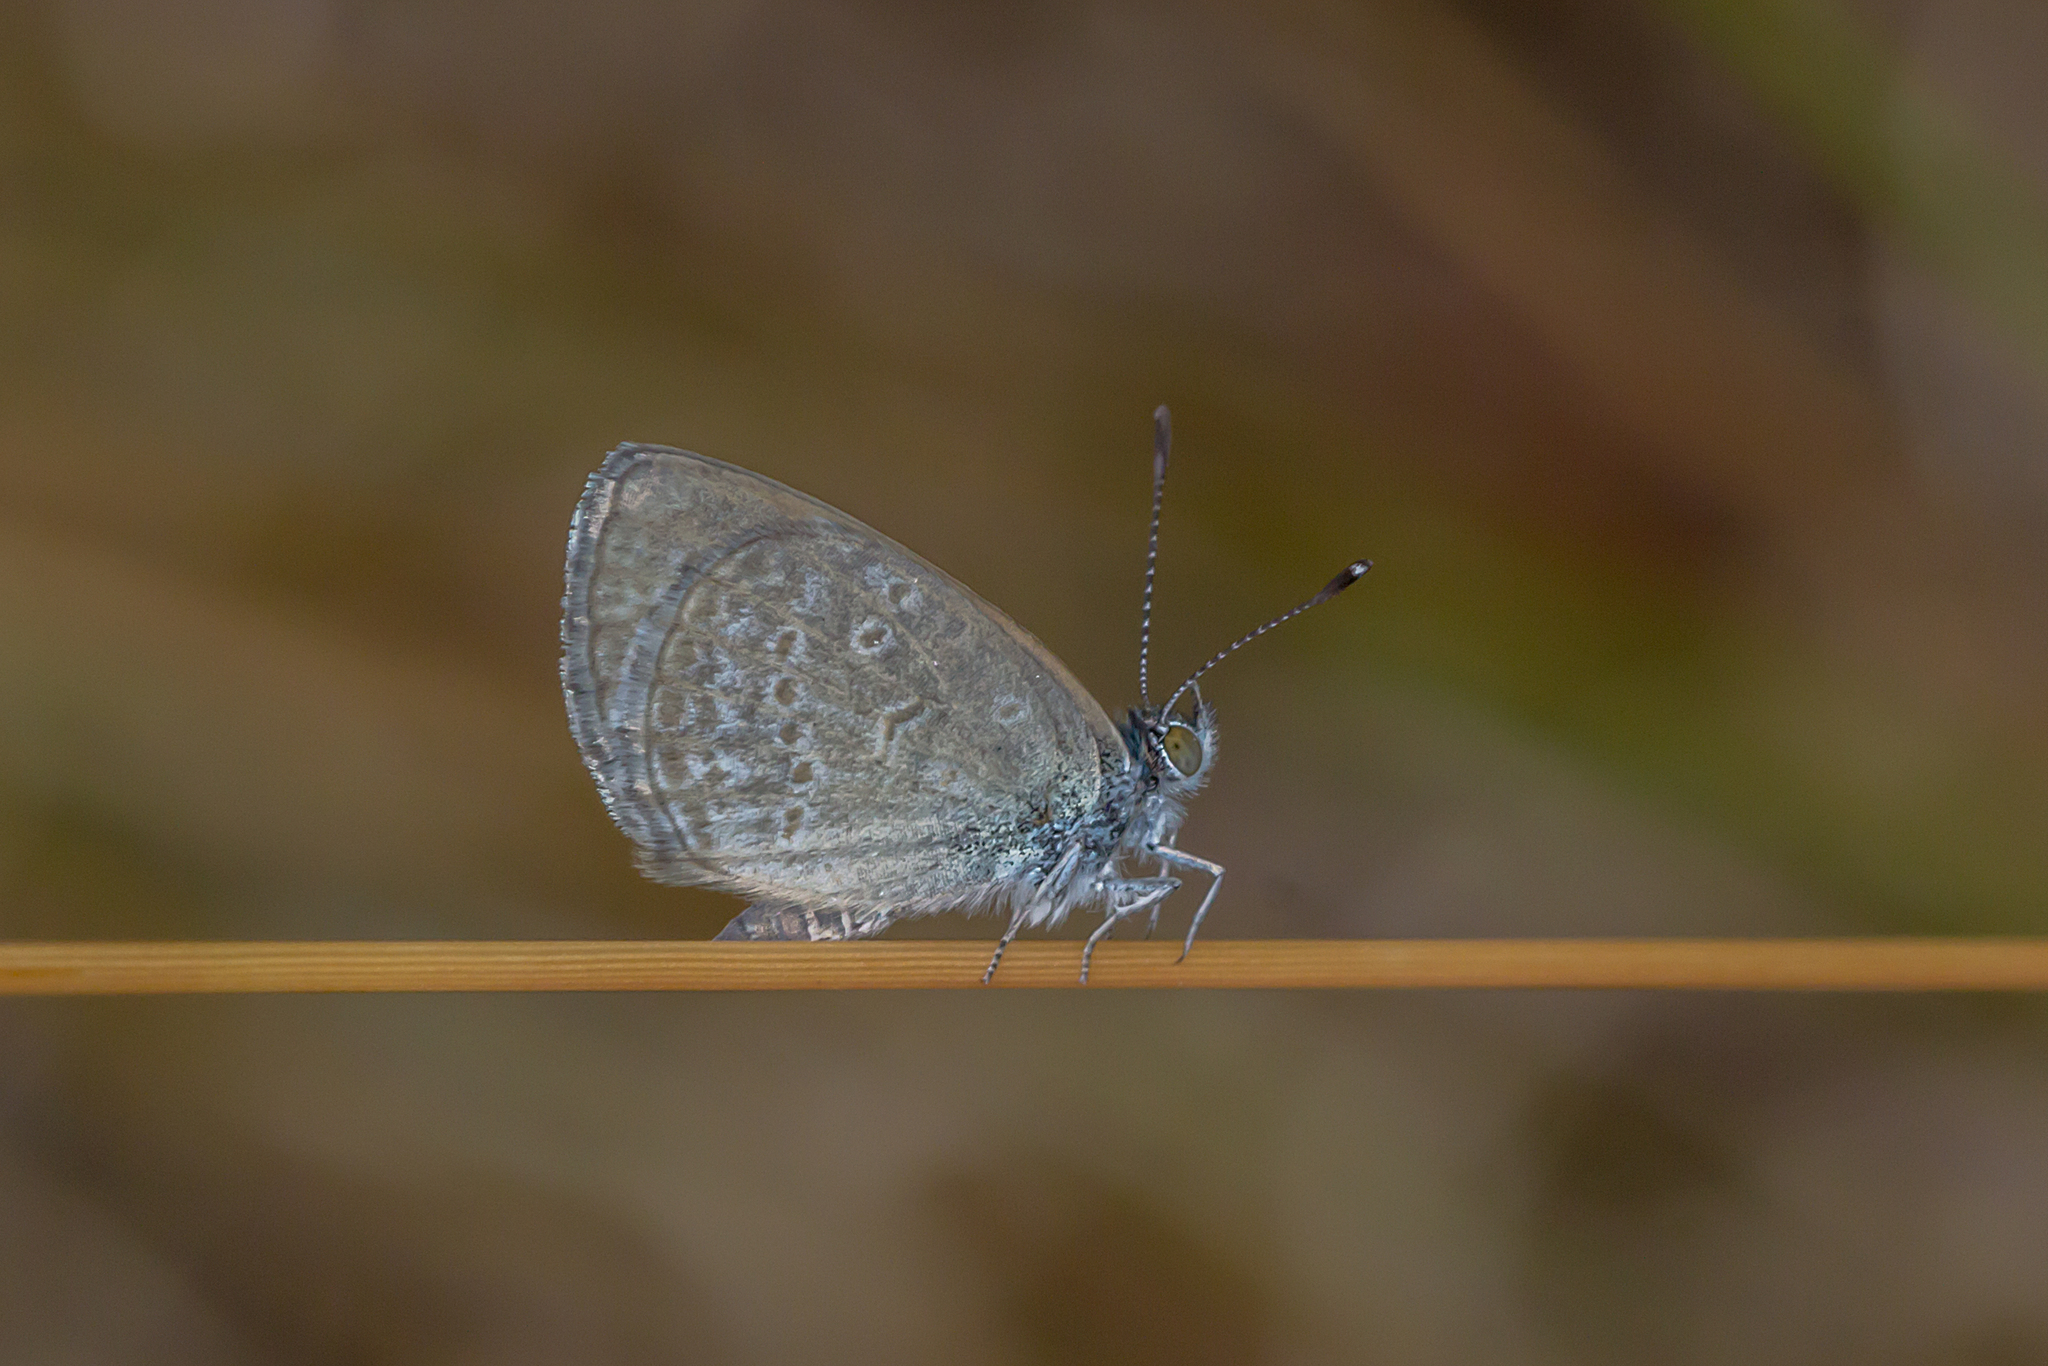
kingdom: Animalia
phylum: Arthropoda
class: Insecta
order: Lepidoptera
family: Lycaenidae
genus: Zizina
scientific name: Zizina labradus
